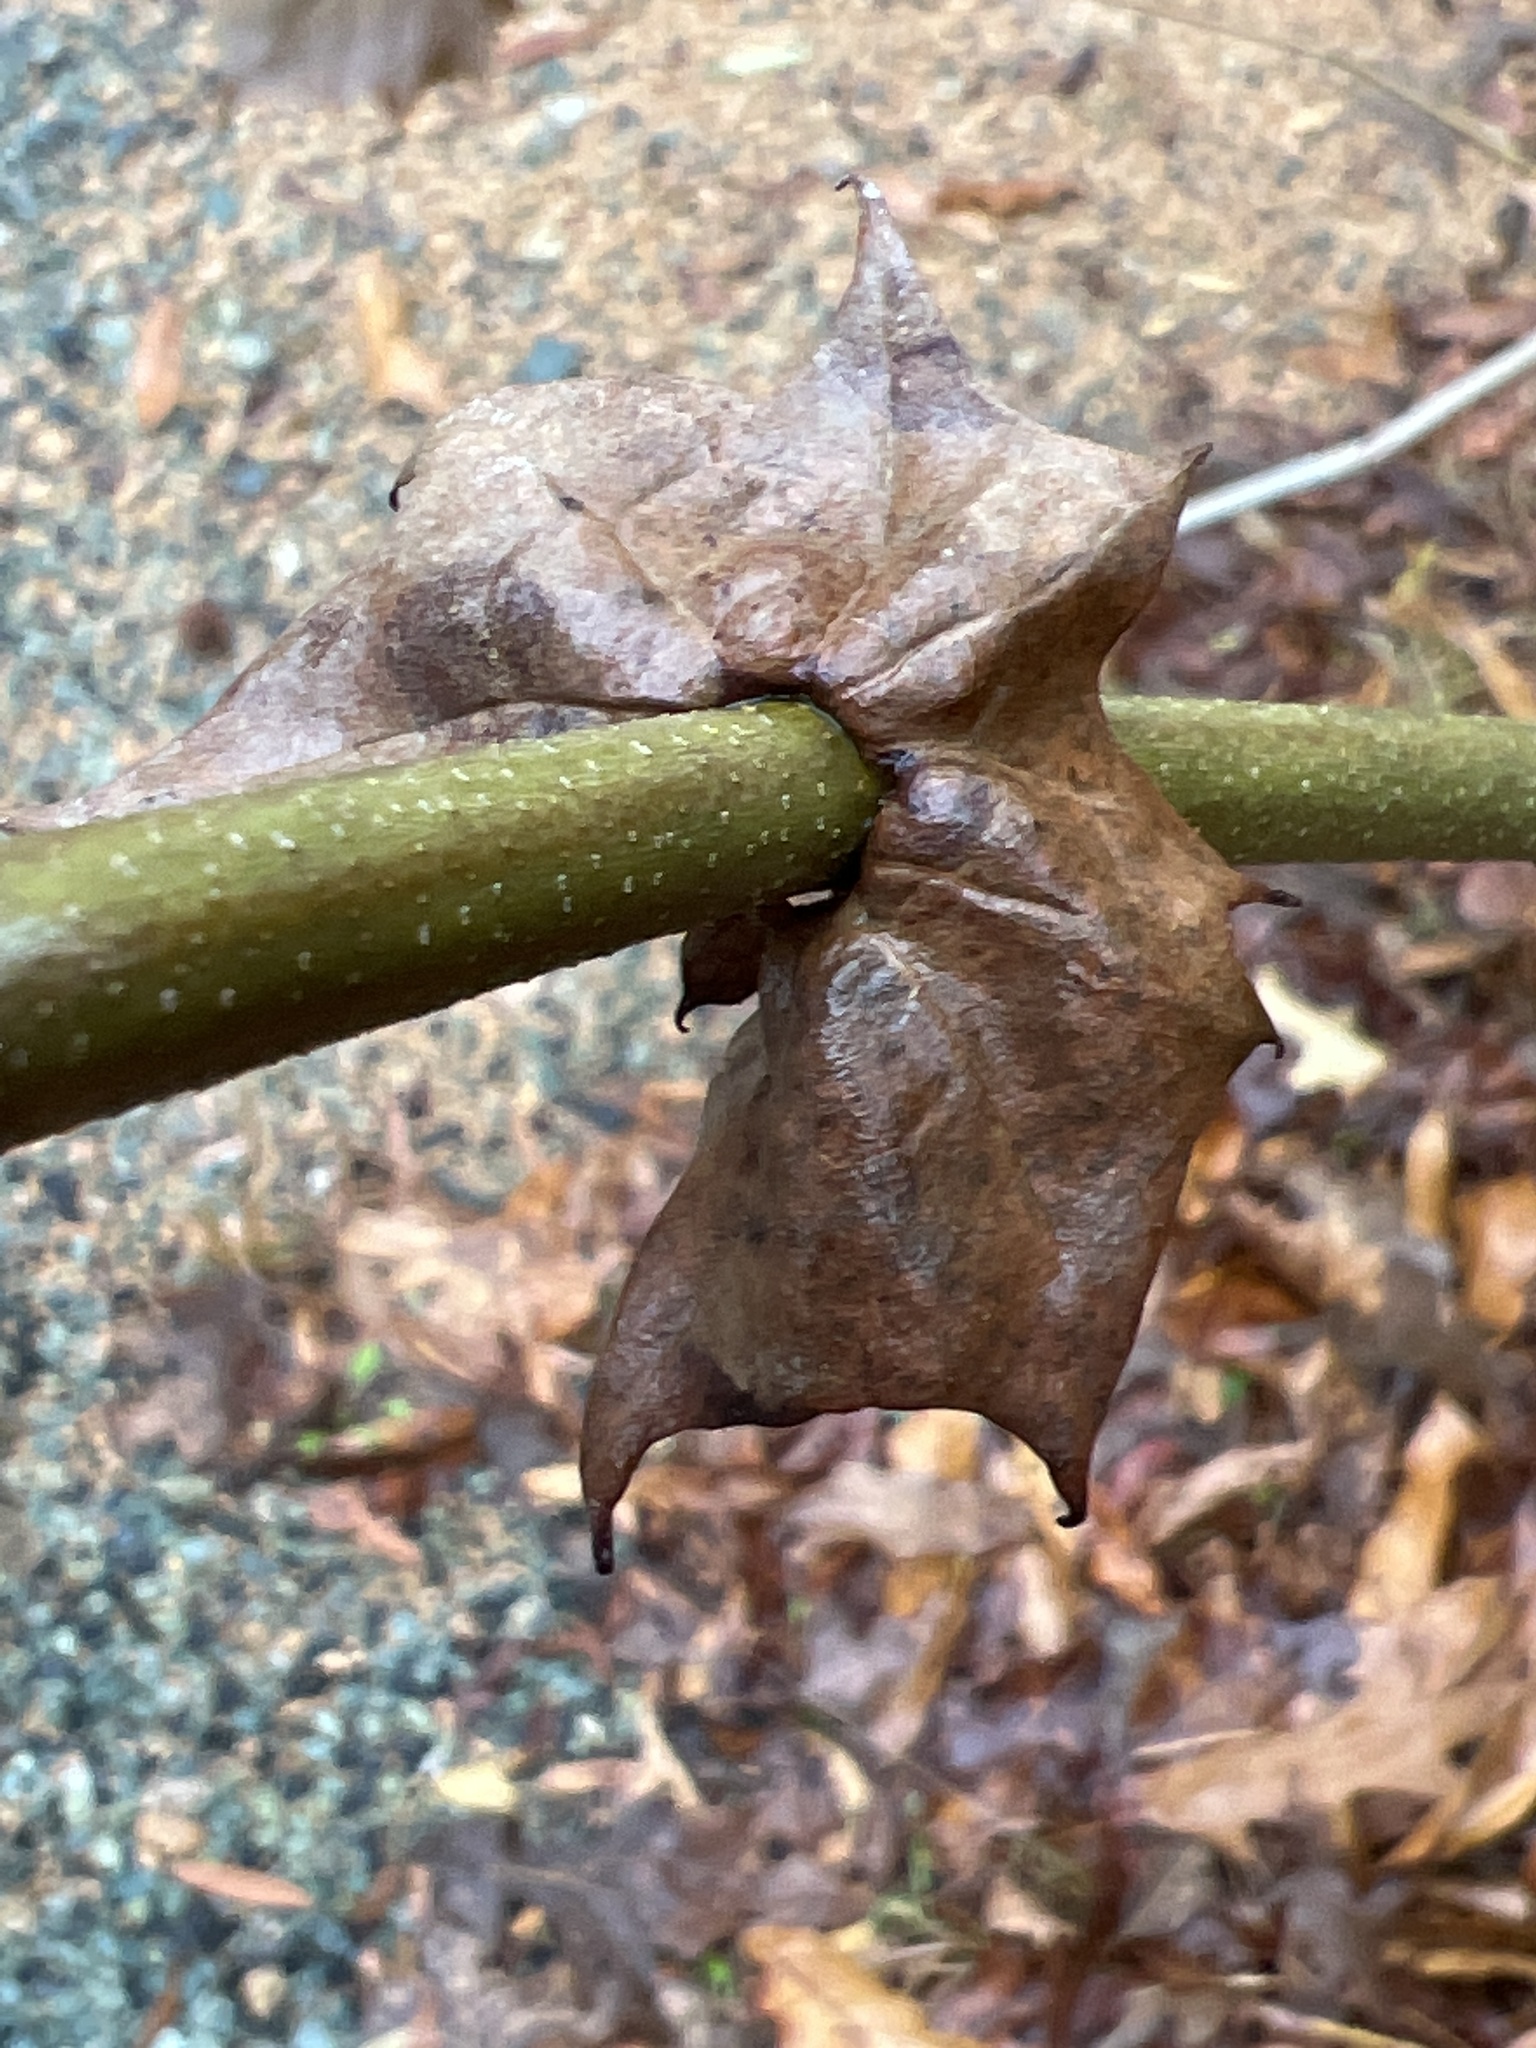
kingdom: Plantae
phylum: Tracheophyta
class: Magnoliopsida
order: Proteales
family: Platanaceae
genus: Platanus
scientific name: Platanus occidentalis
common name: American sycamore
